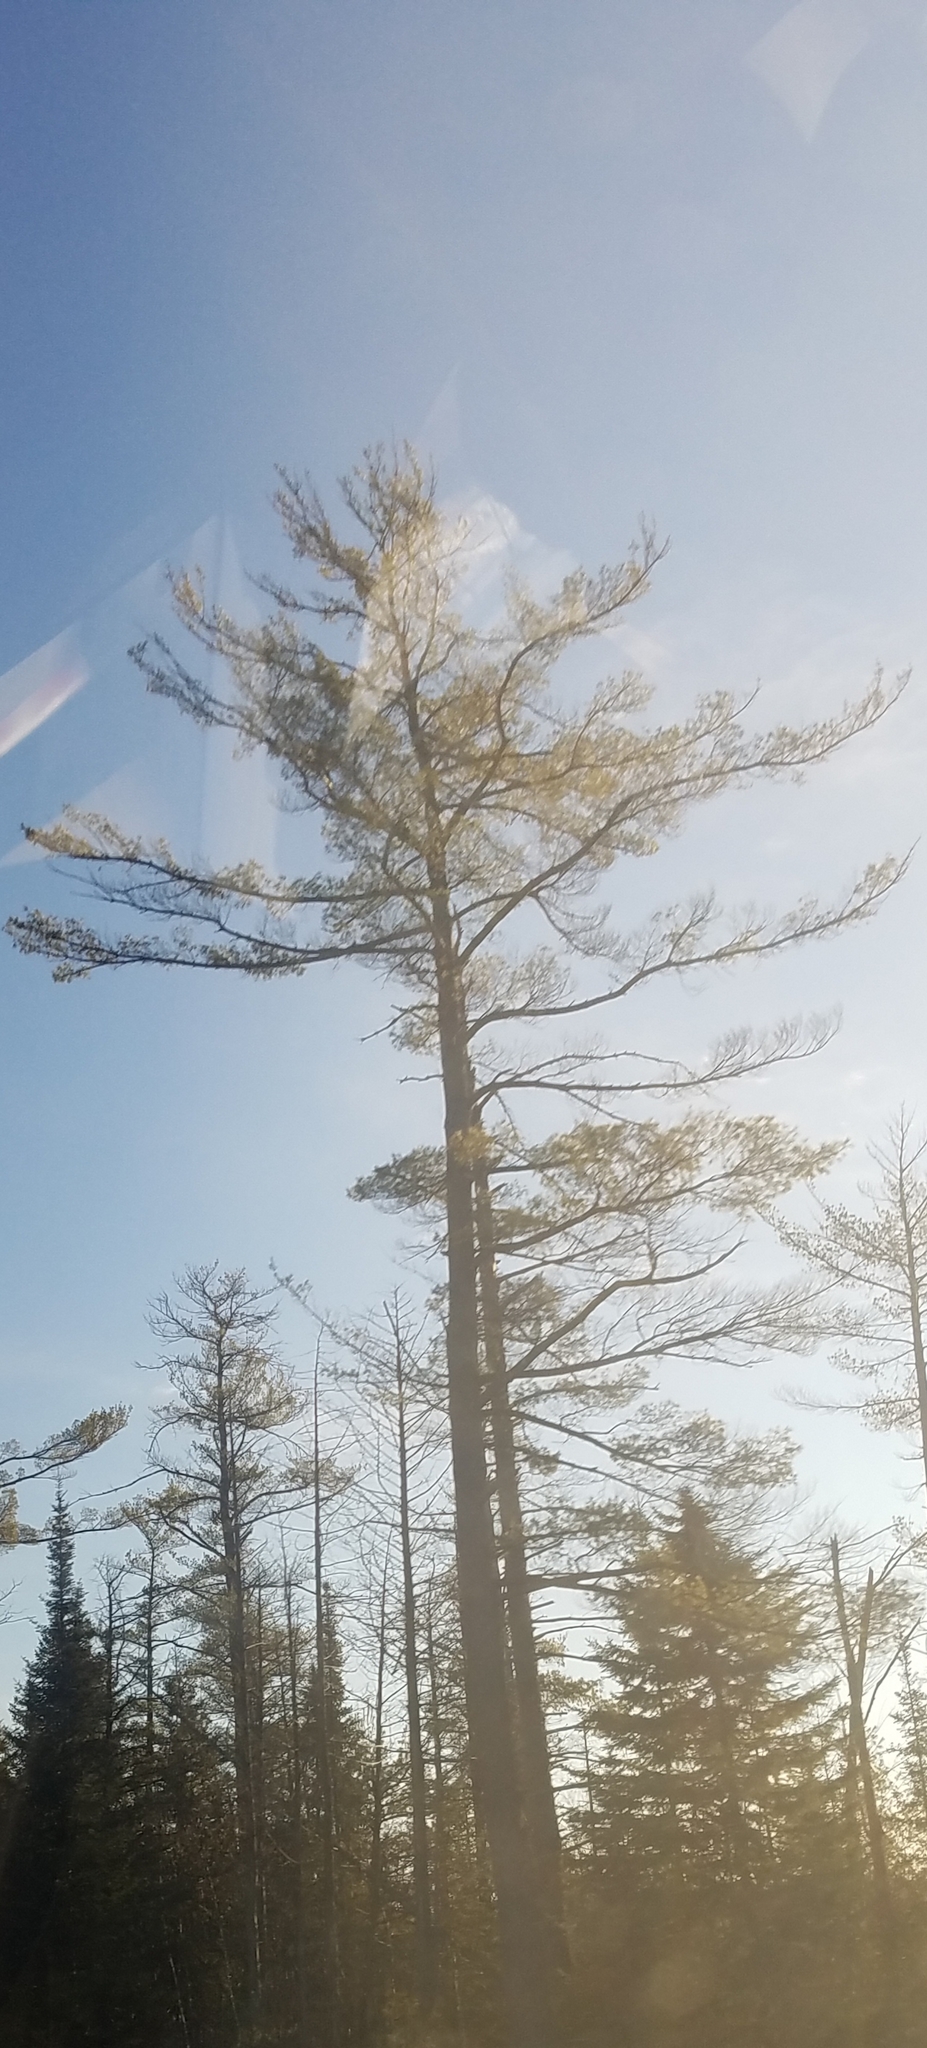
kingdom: Plantae
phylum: Tracheophyta
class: Pinopsida
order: Pinales
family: Pinaceae
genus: Pinus
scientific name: Pinus strobus
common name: Weymouth pine
